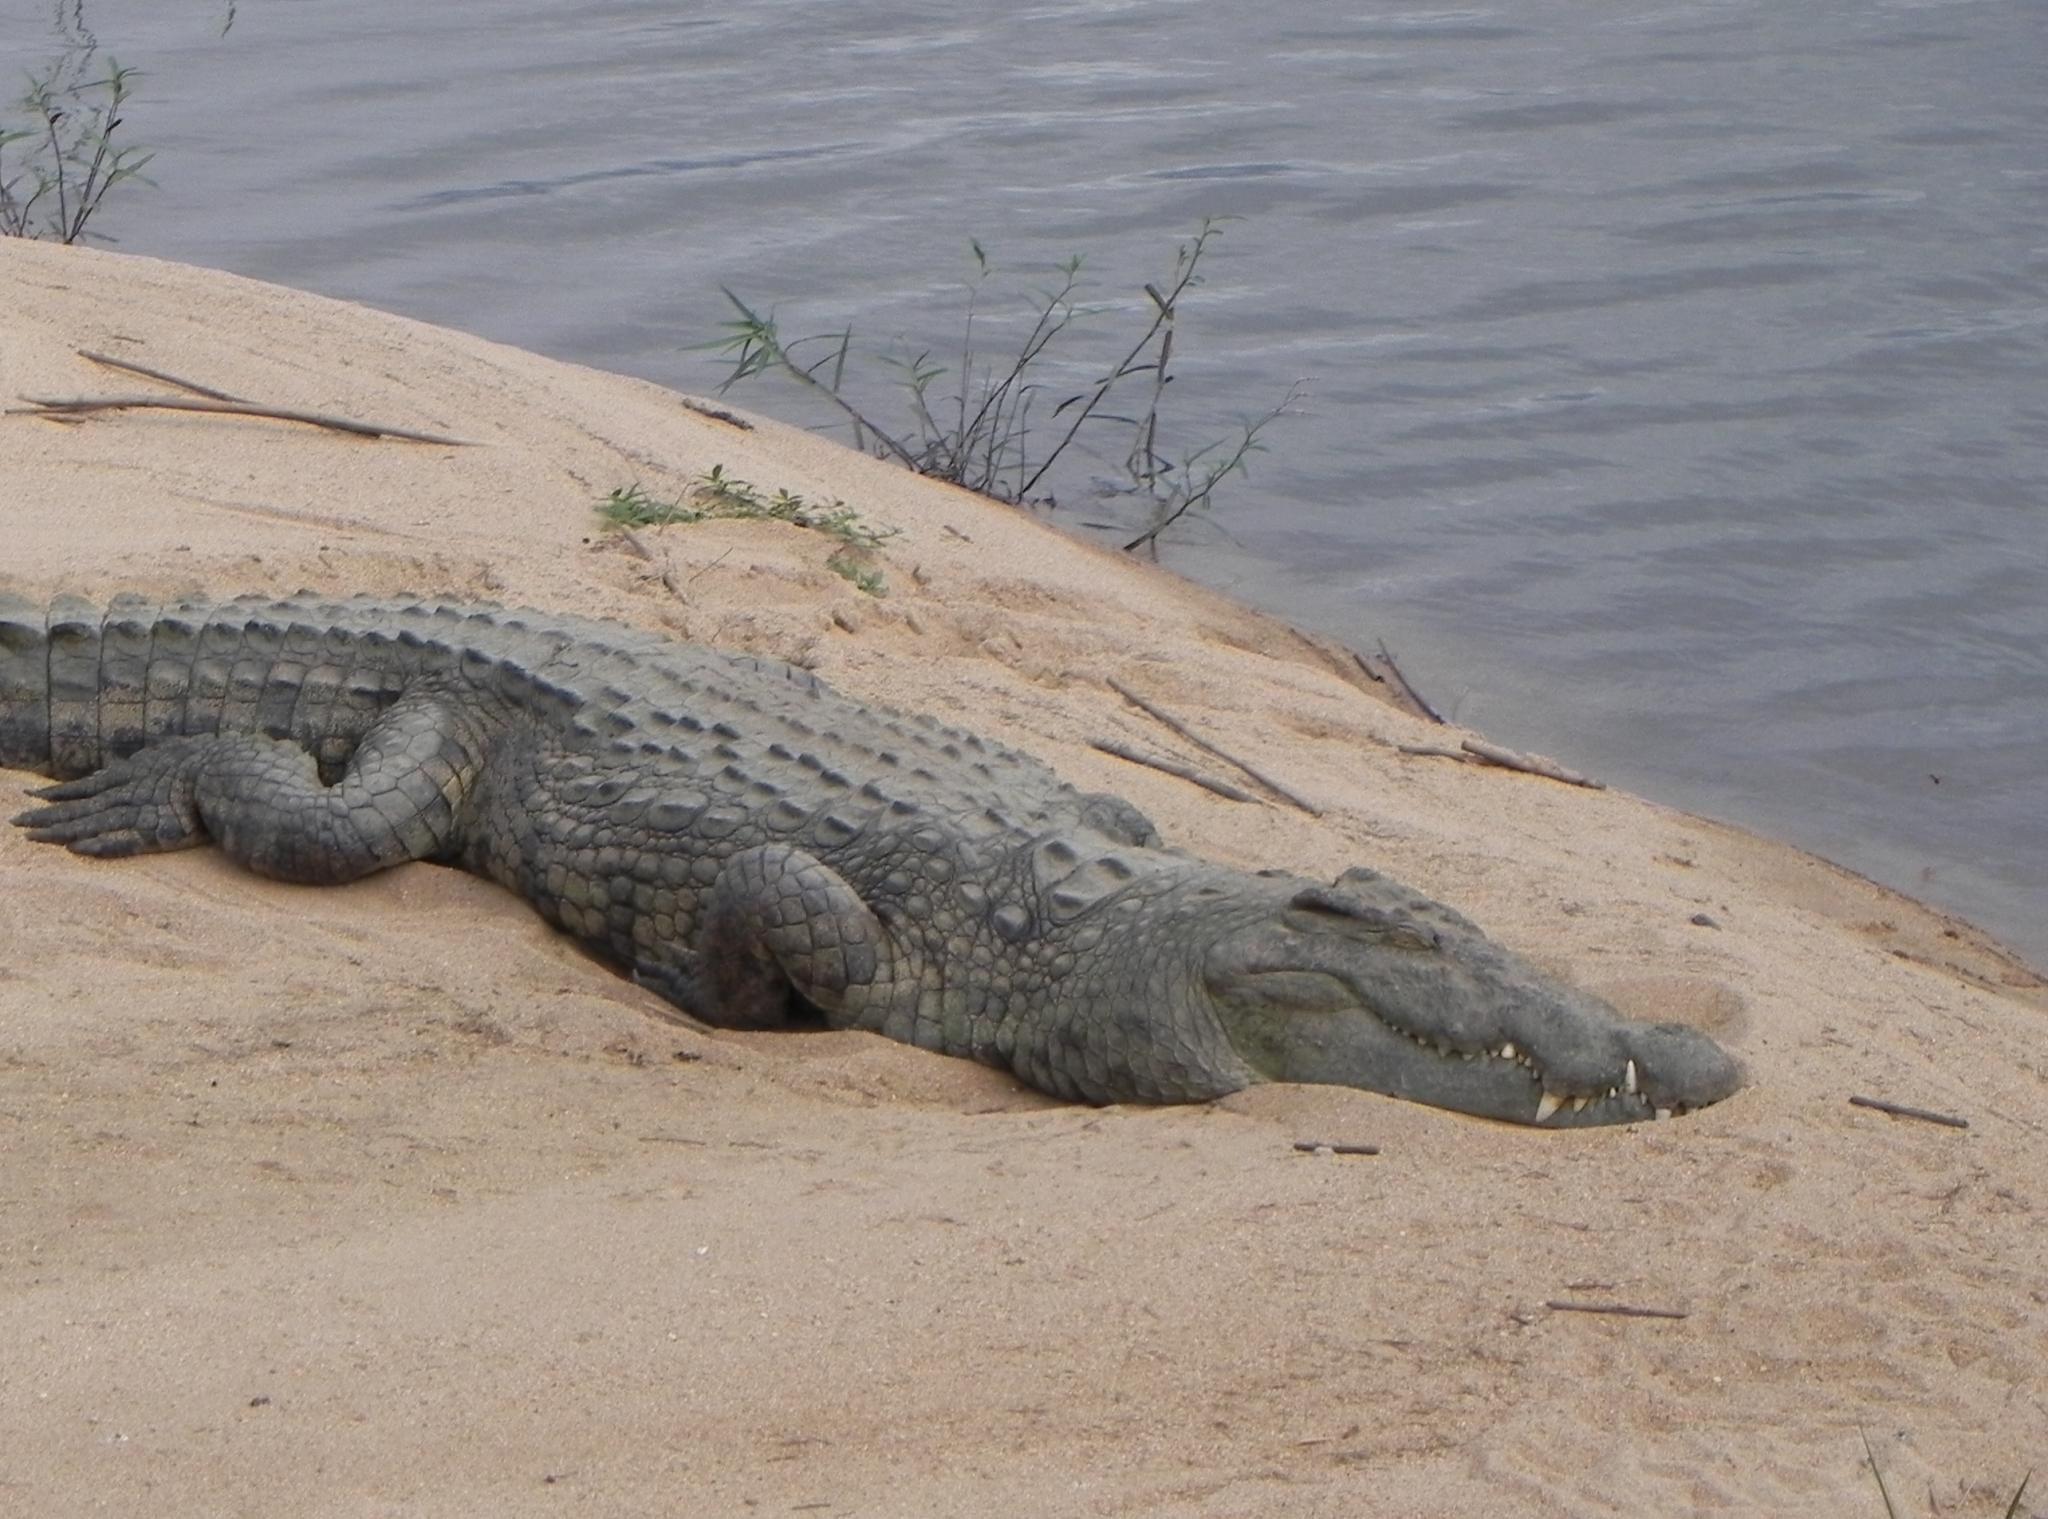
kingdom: Animalia
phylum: Chordata
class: Crocodylia
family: Crocodylidae
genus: Crocodylus
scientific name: Crocodylus niloticus
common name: Nile crocodile
